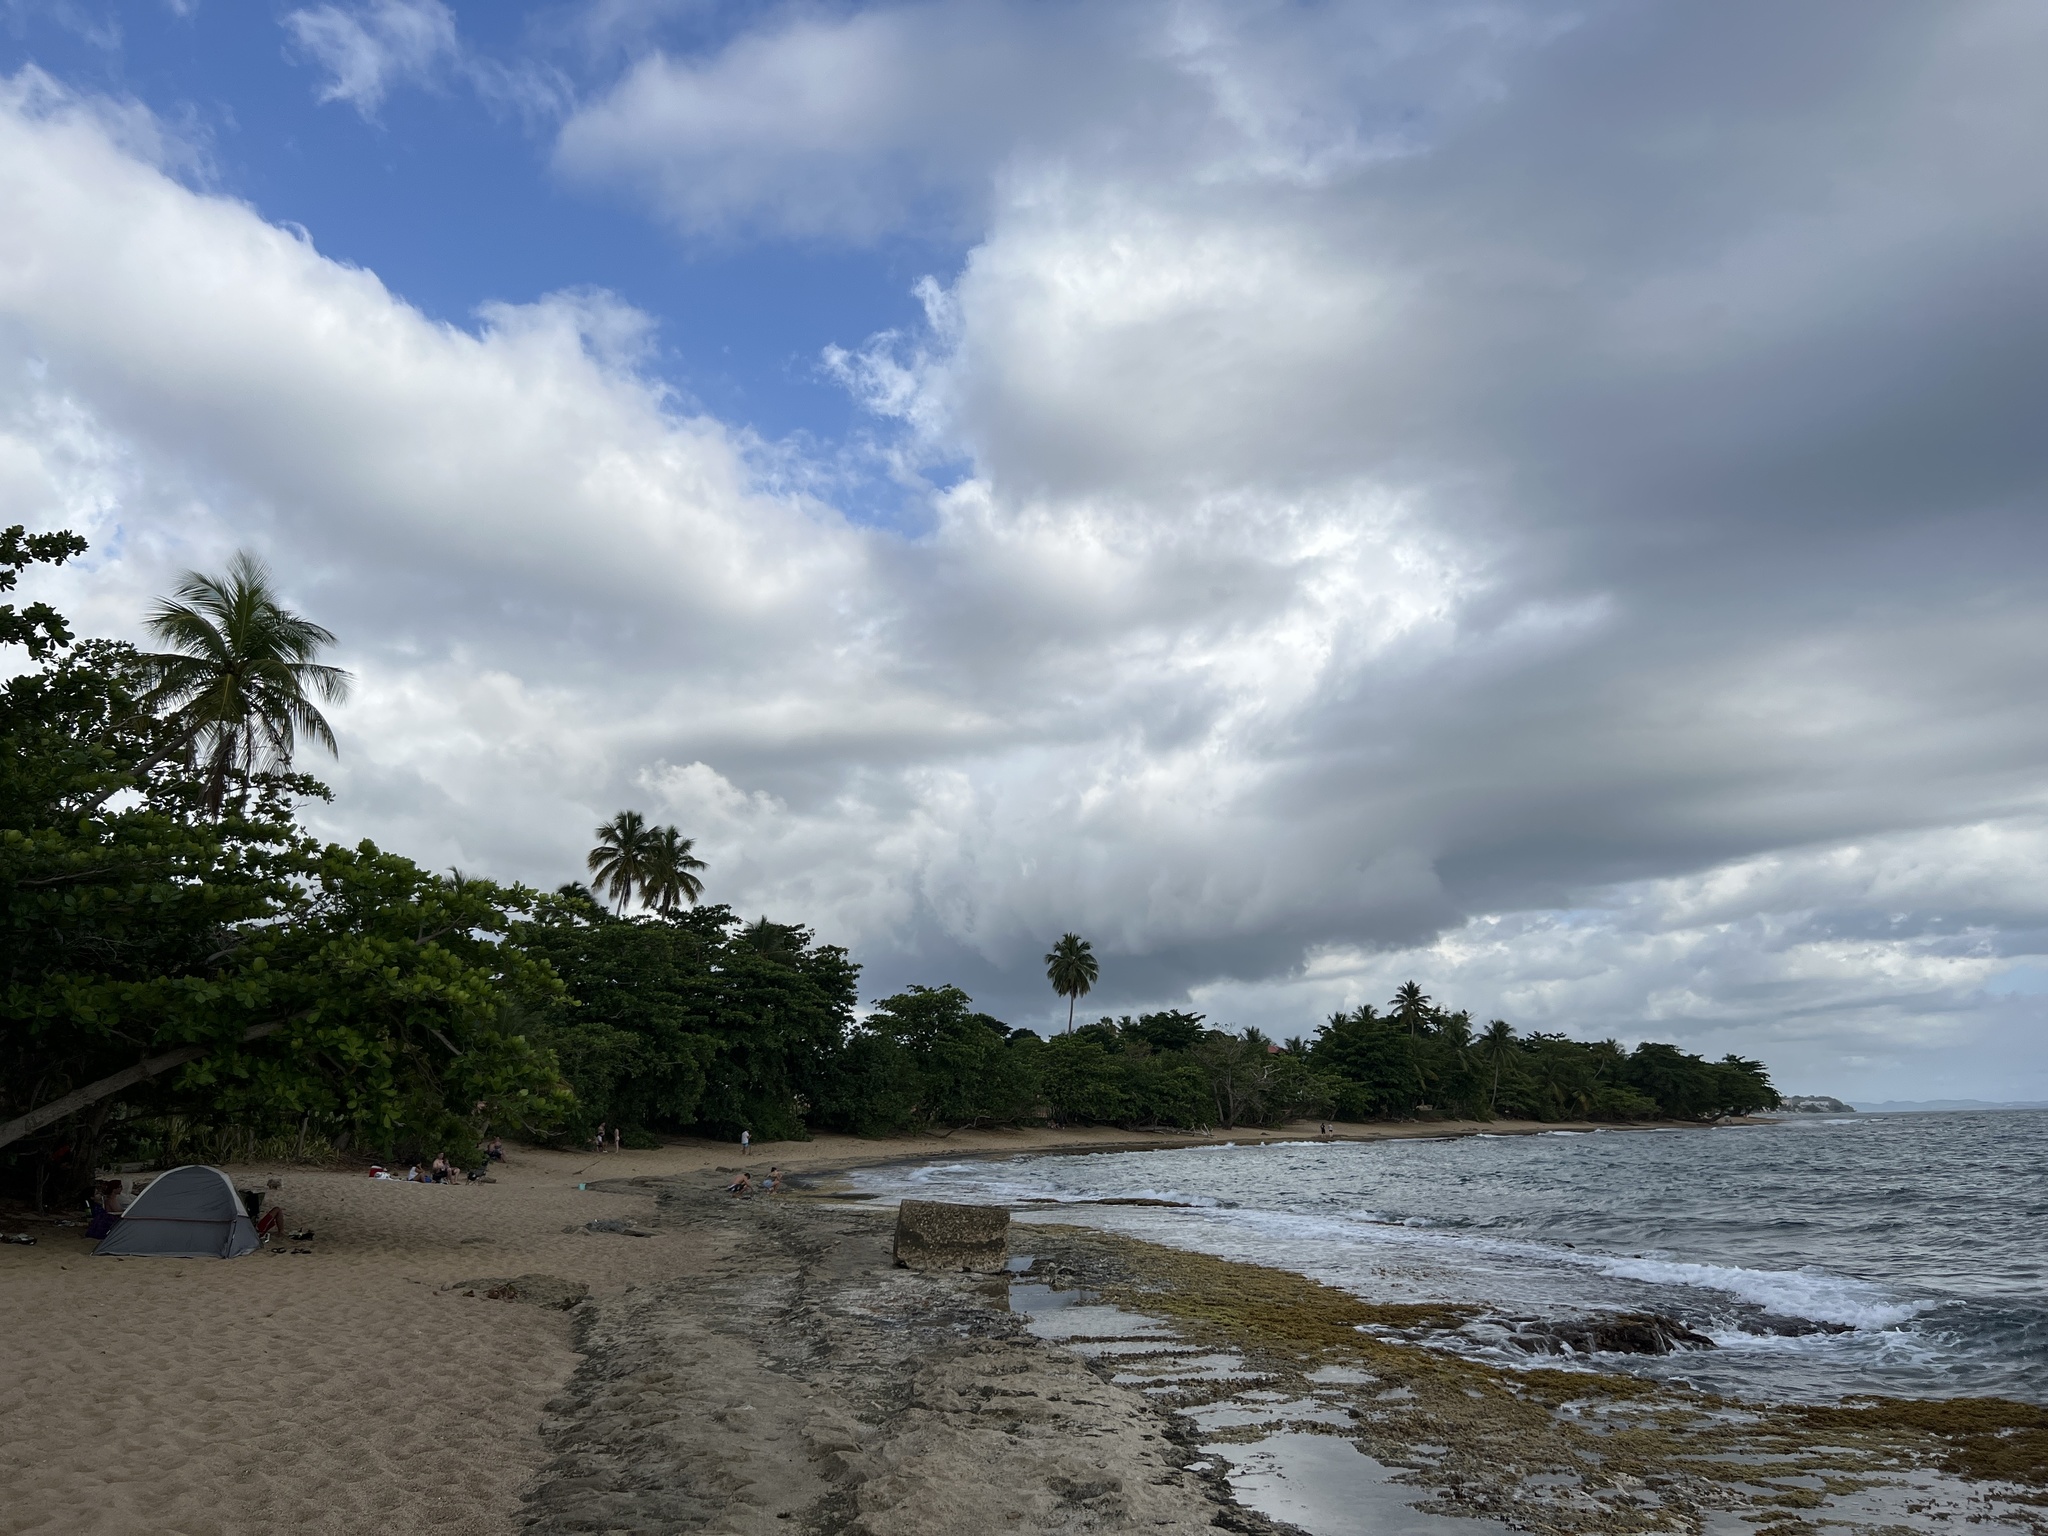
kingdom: Plantae
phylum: Tracheophyta
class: Liliopsida
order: Arecales
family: Arecaceae
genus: Cocos
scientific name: Cocos nucifera
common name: Coconut palm
